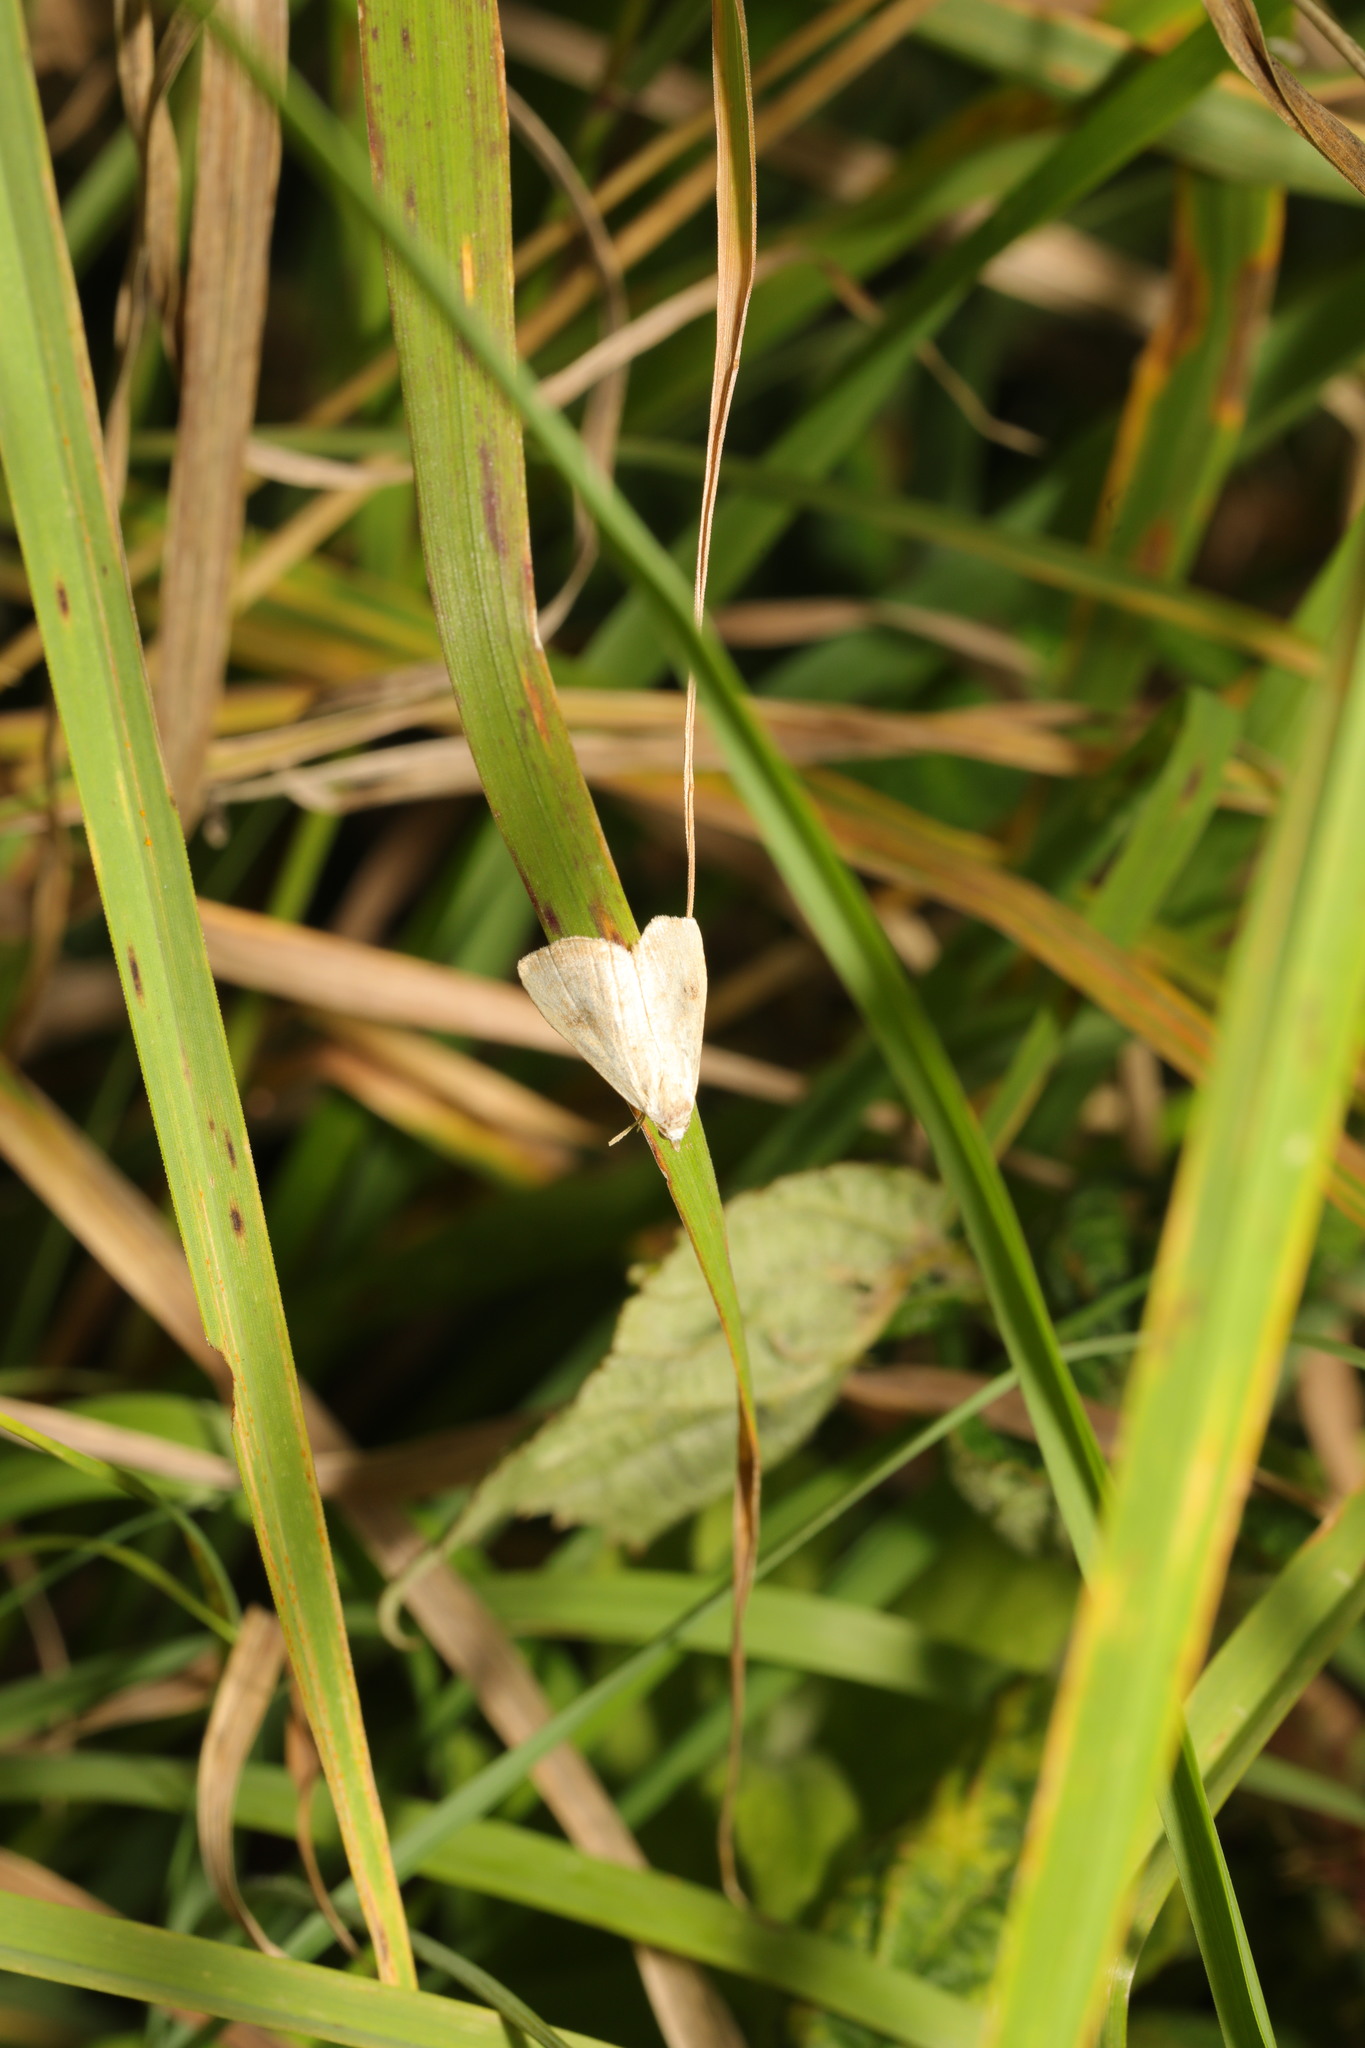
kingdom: Animalia
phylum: Arthropoda
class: Insecta
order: Lepidoptera
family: Erebidae
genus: Rivula
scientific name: Rivula sericealis
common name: Straw dot
